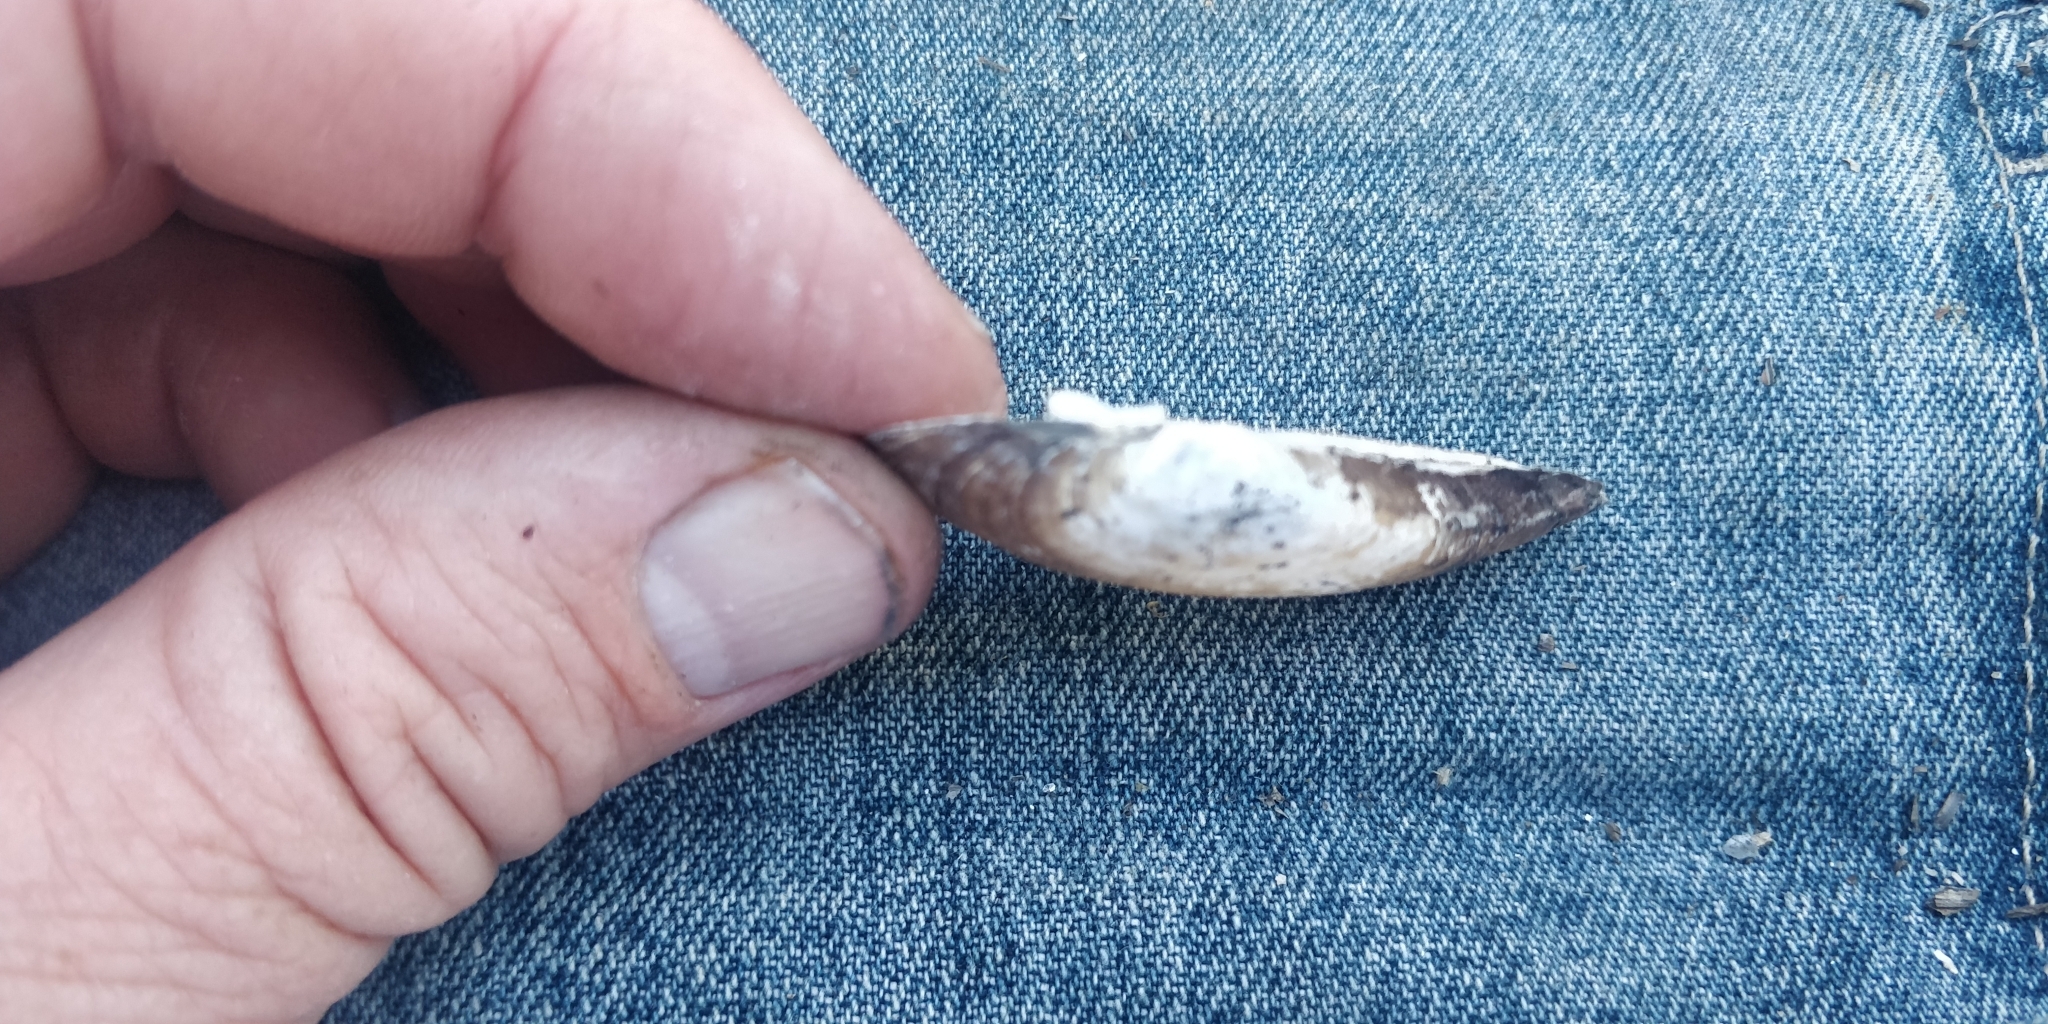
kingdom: Animalia
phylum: Mollusca
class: Bivalvia
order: Unionida
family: Unionidae
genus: Lampsilis
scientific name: Lampsilis teres
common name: Yellow sandshell
